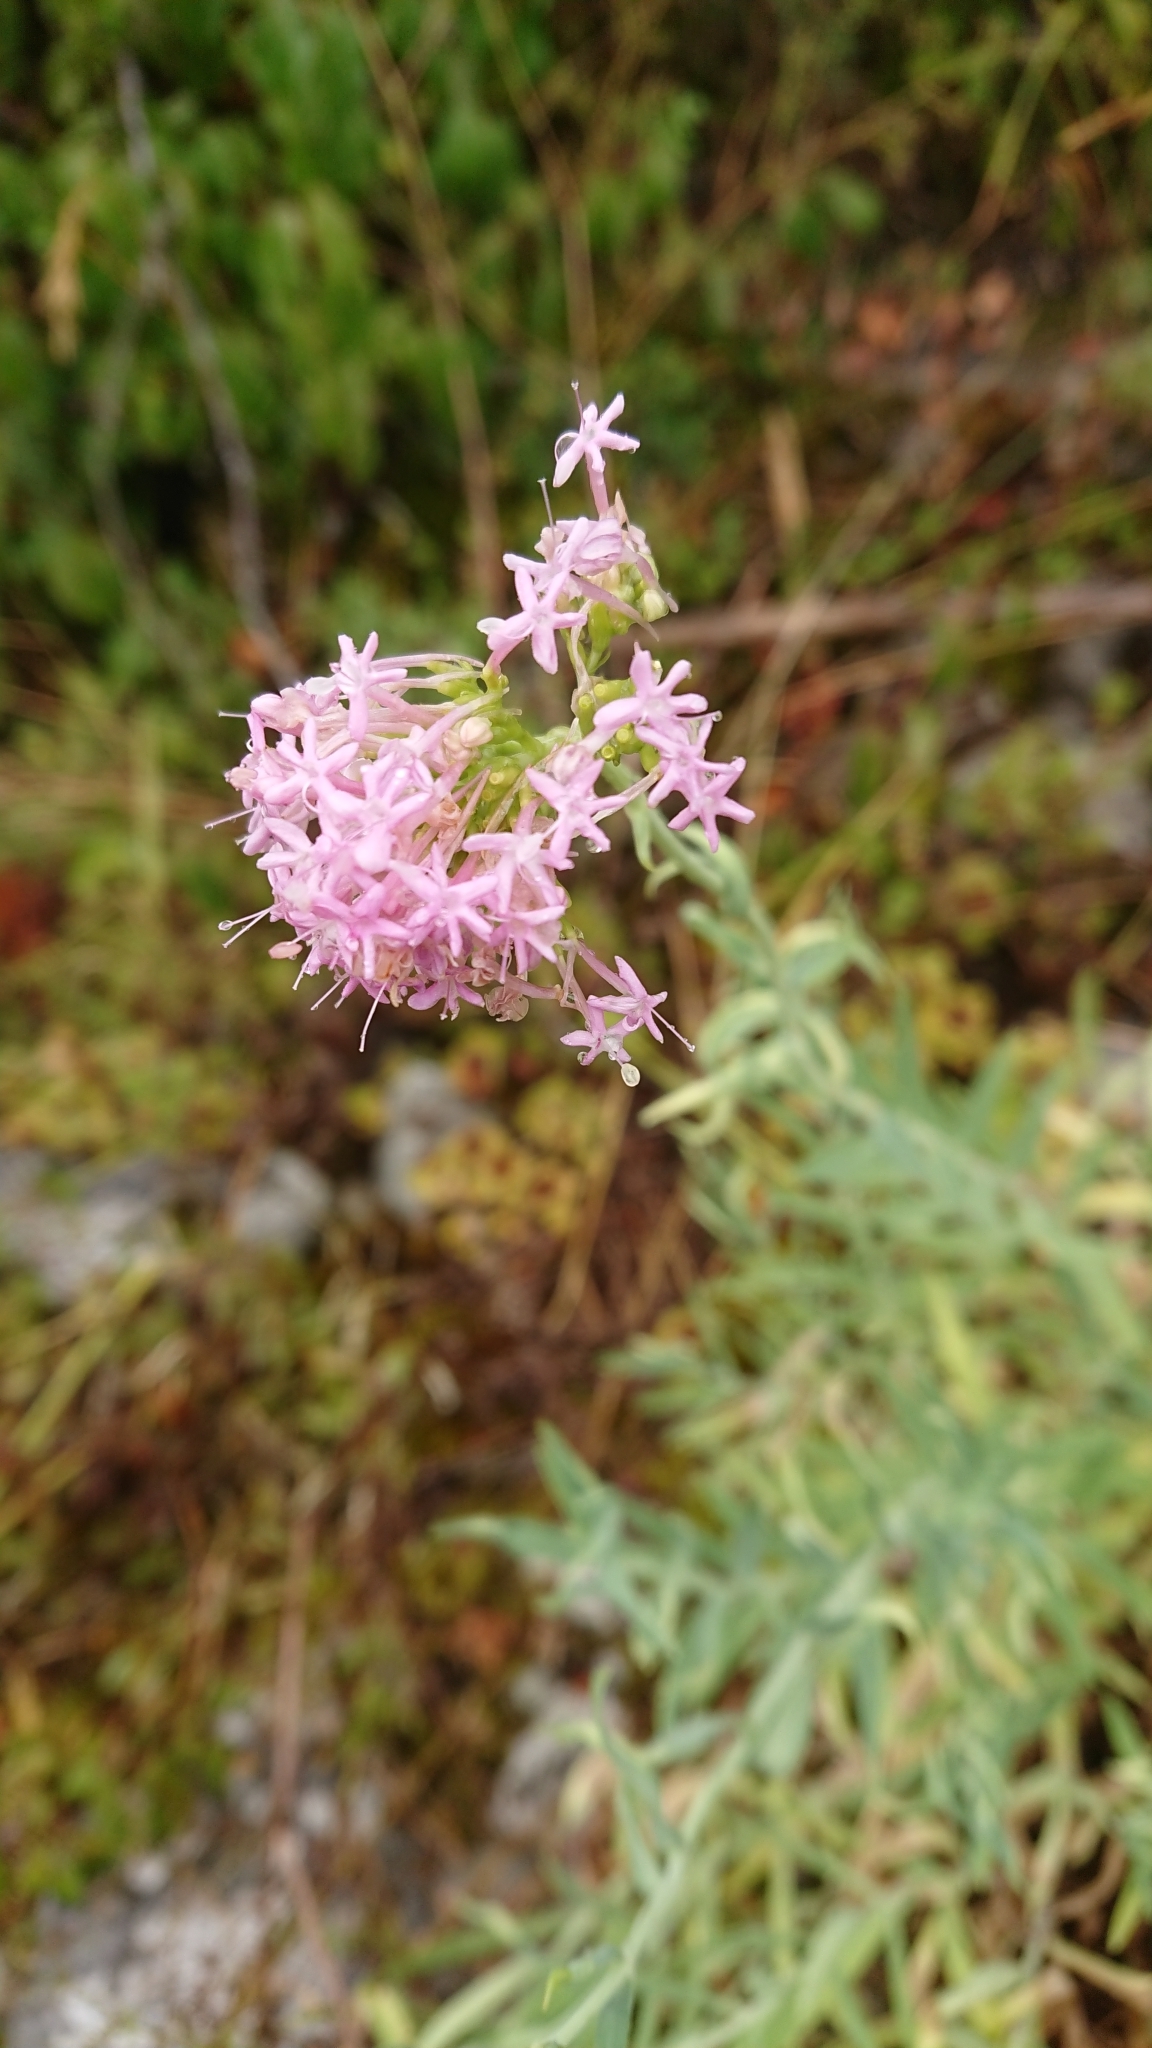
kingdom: Plantae
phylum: Tracheophyta
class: Magnoliopsida
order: Dipsacales
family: Caprifoliaceae
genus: Centranthus
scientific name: Centranthus lecoqii
